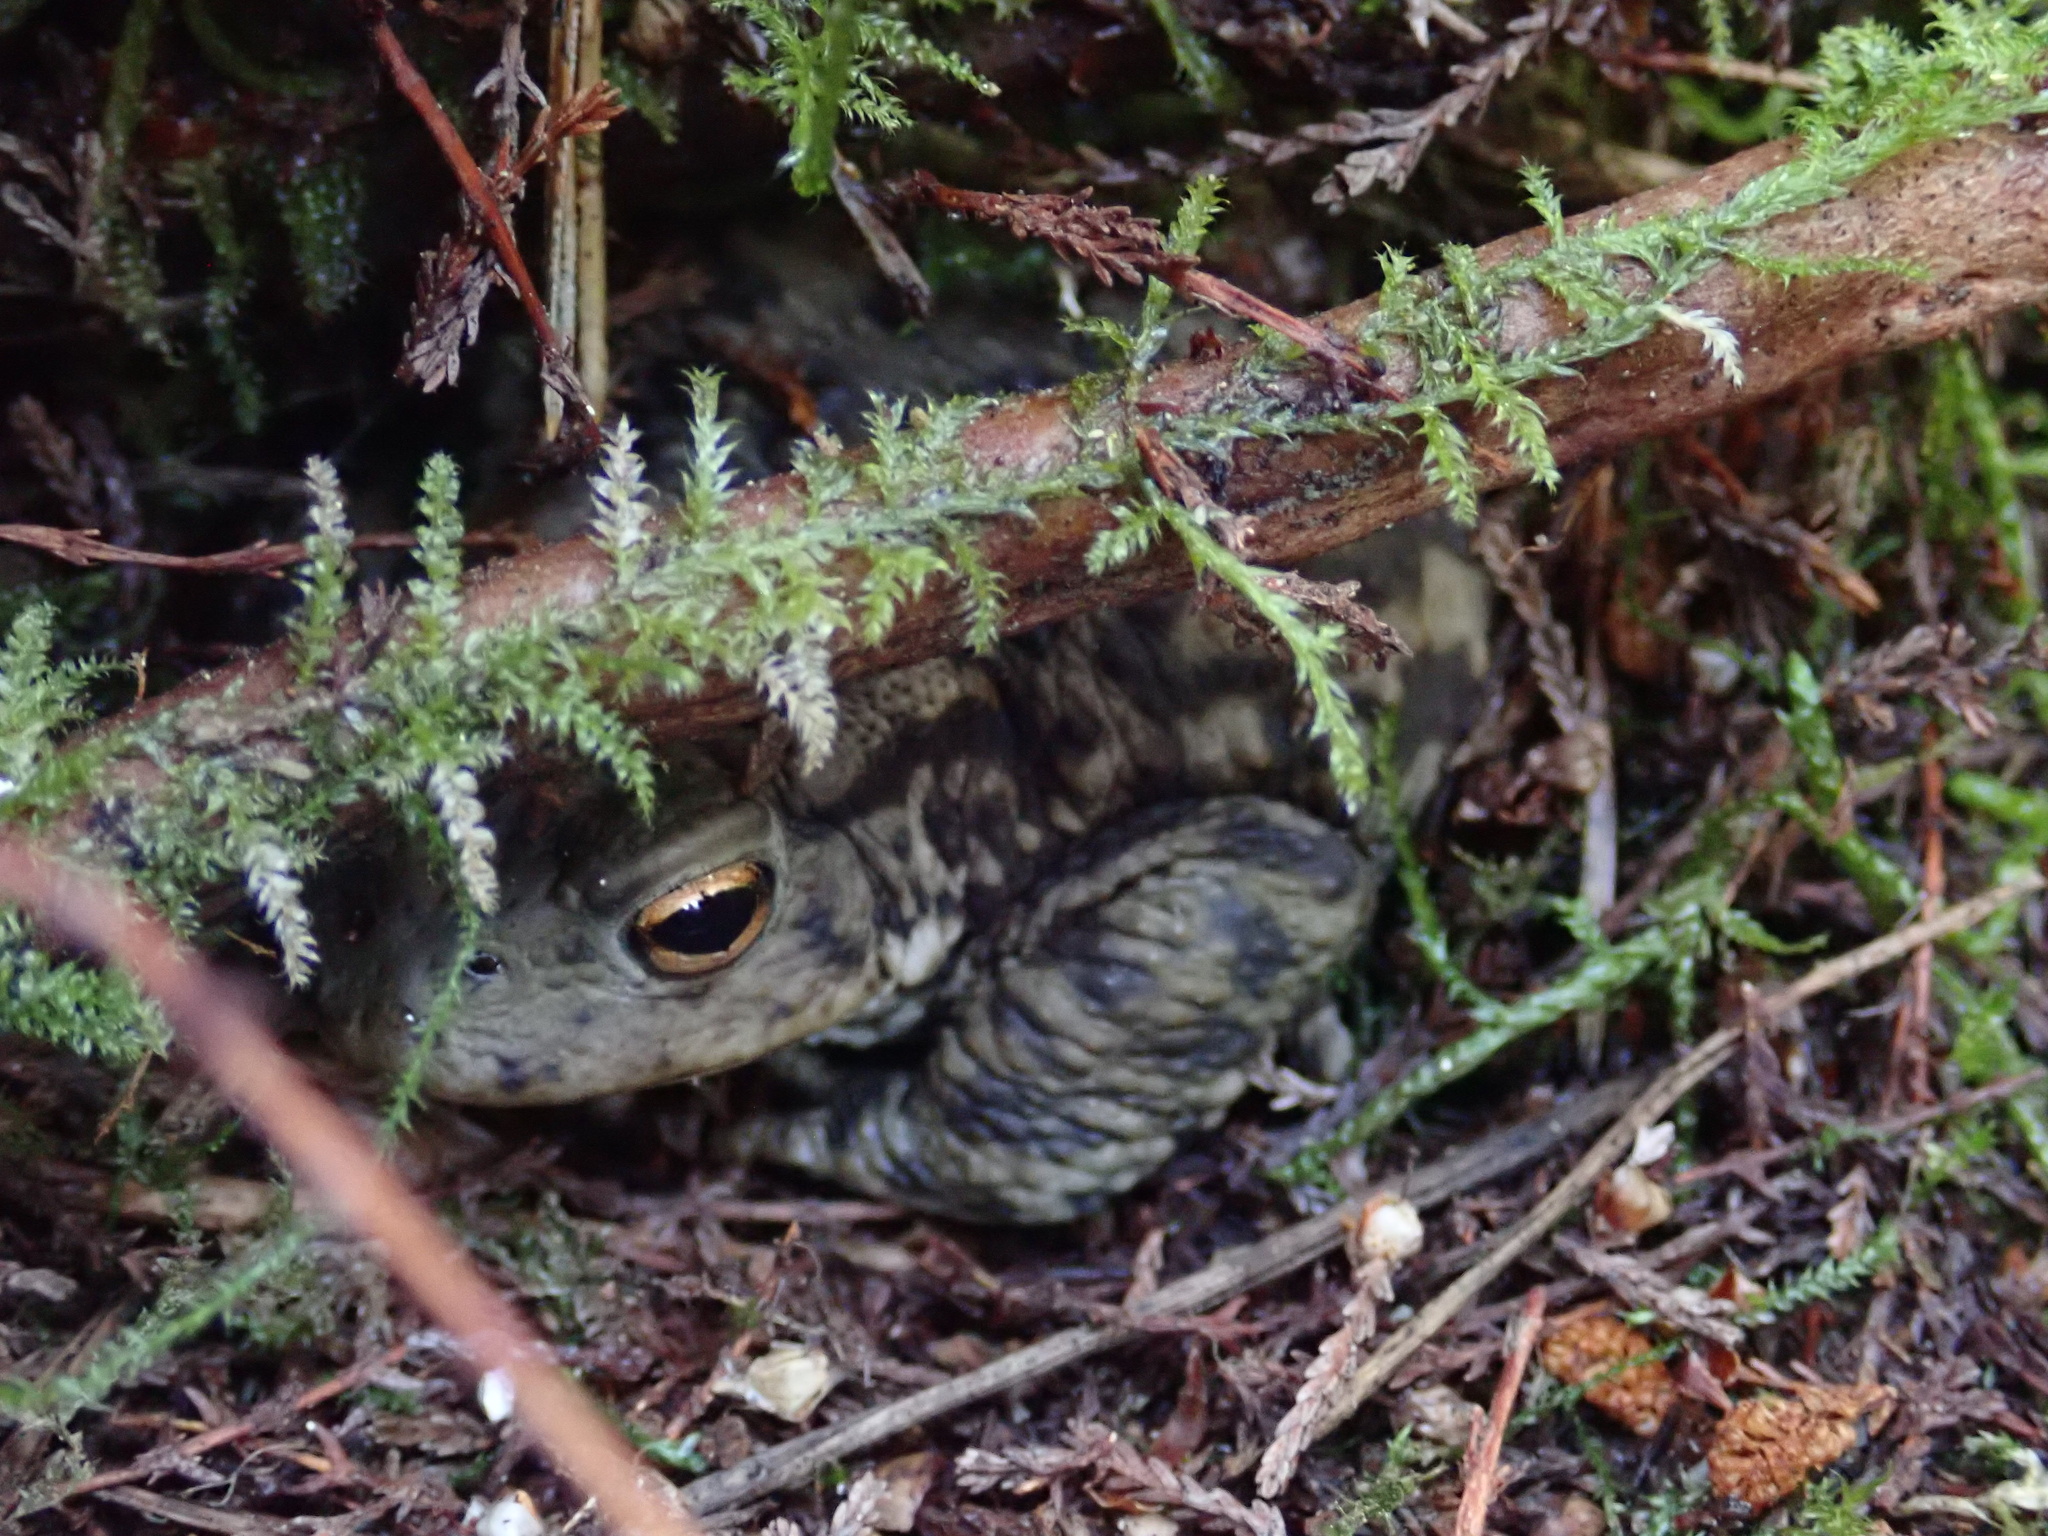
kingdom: Animalia
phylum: Chordata
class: Amphibia
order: Anura
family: Bufonidae
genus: Bufo
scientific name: Bufo bufo
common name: Common toad
